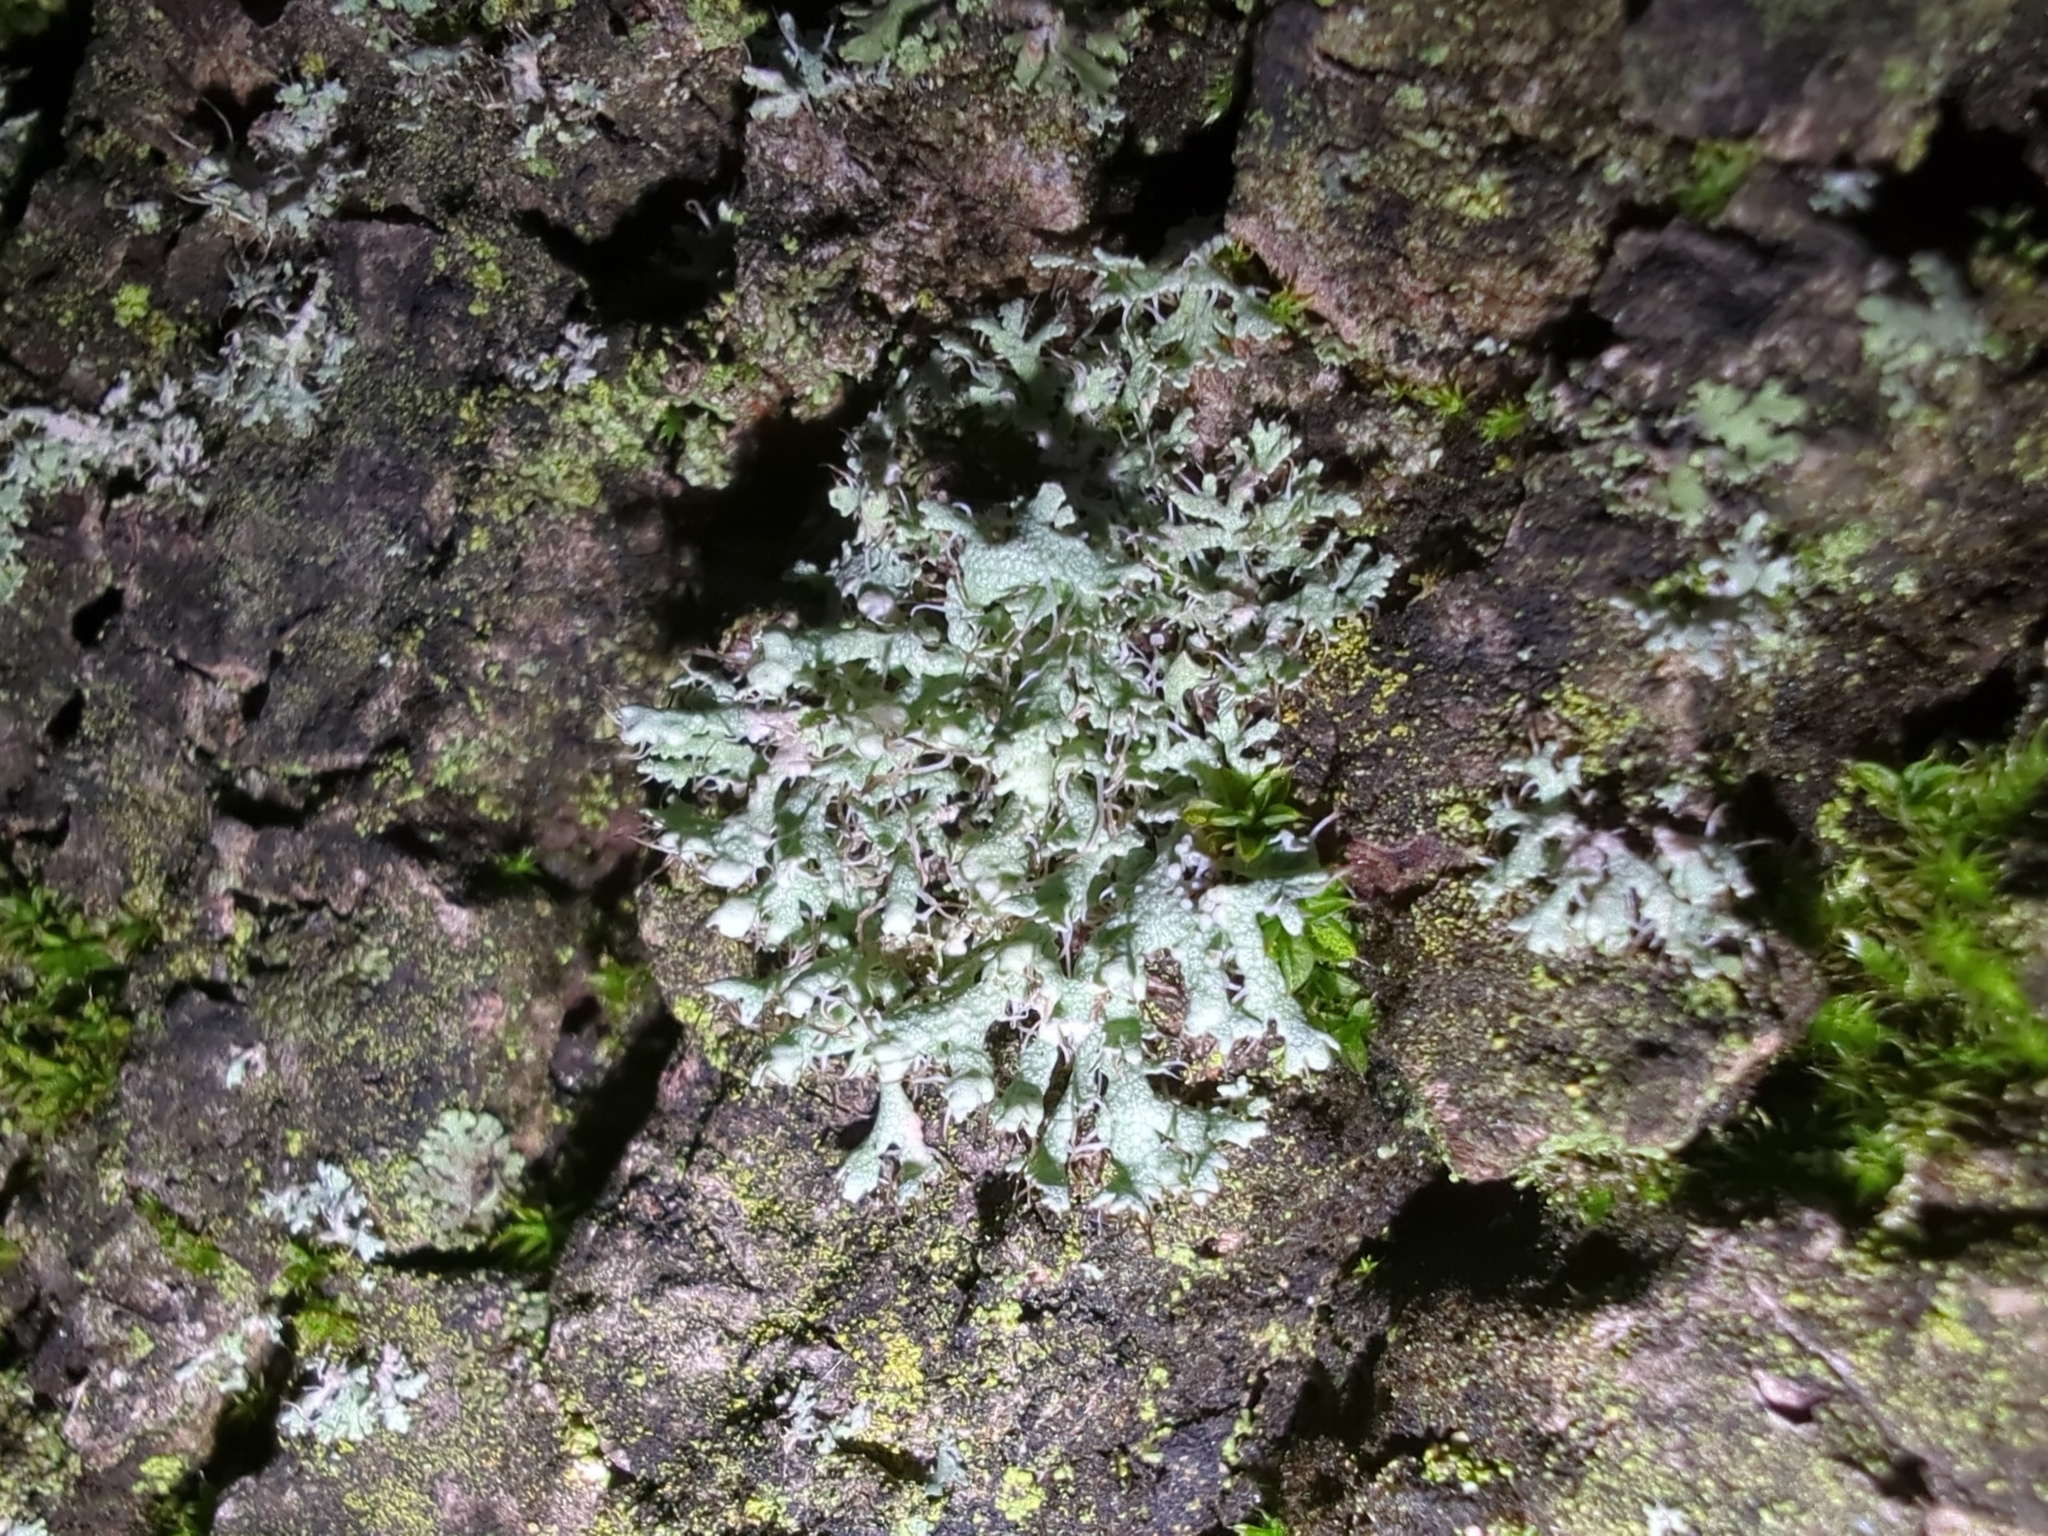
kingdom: Fungi
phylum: Ascomycota
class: Lecanoromycetes
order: Caliciales
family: Physciaceae
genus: Physcia
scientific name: Physcia adscendens
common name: Hooded rosette lichen
